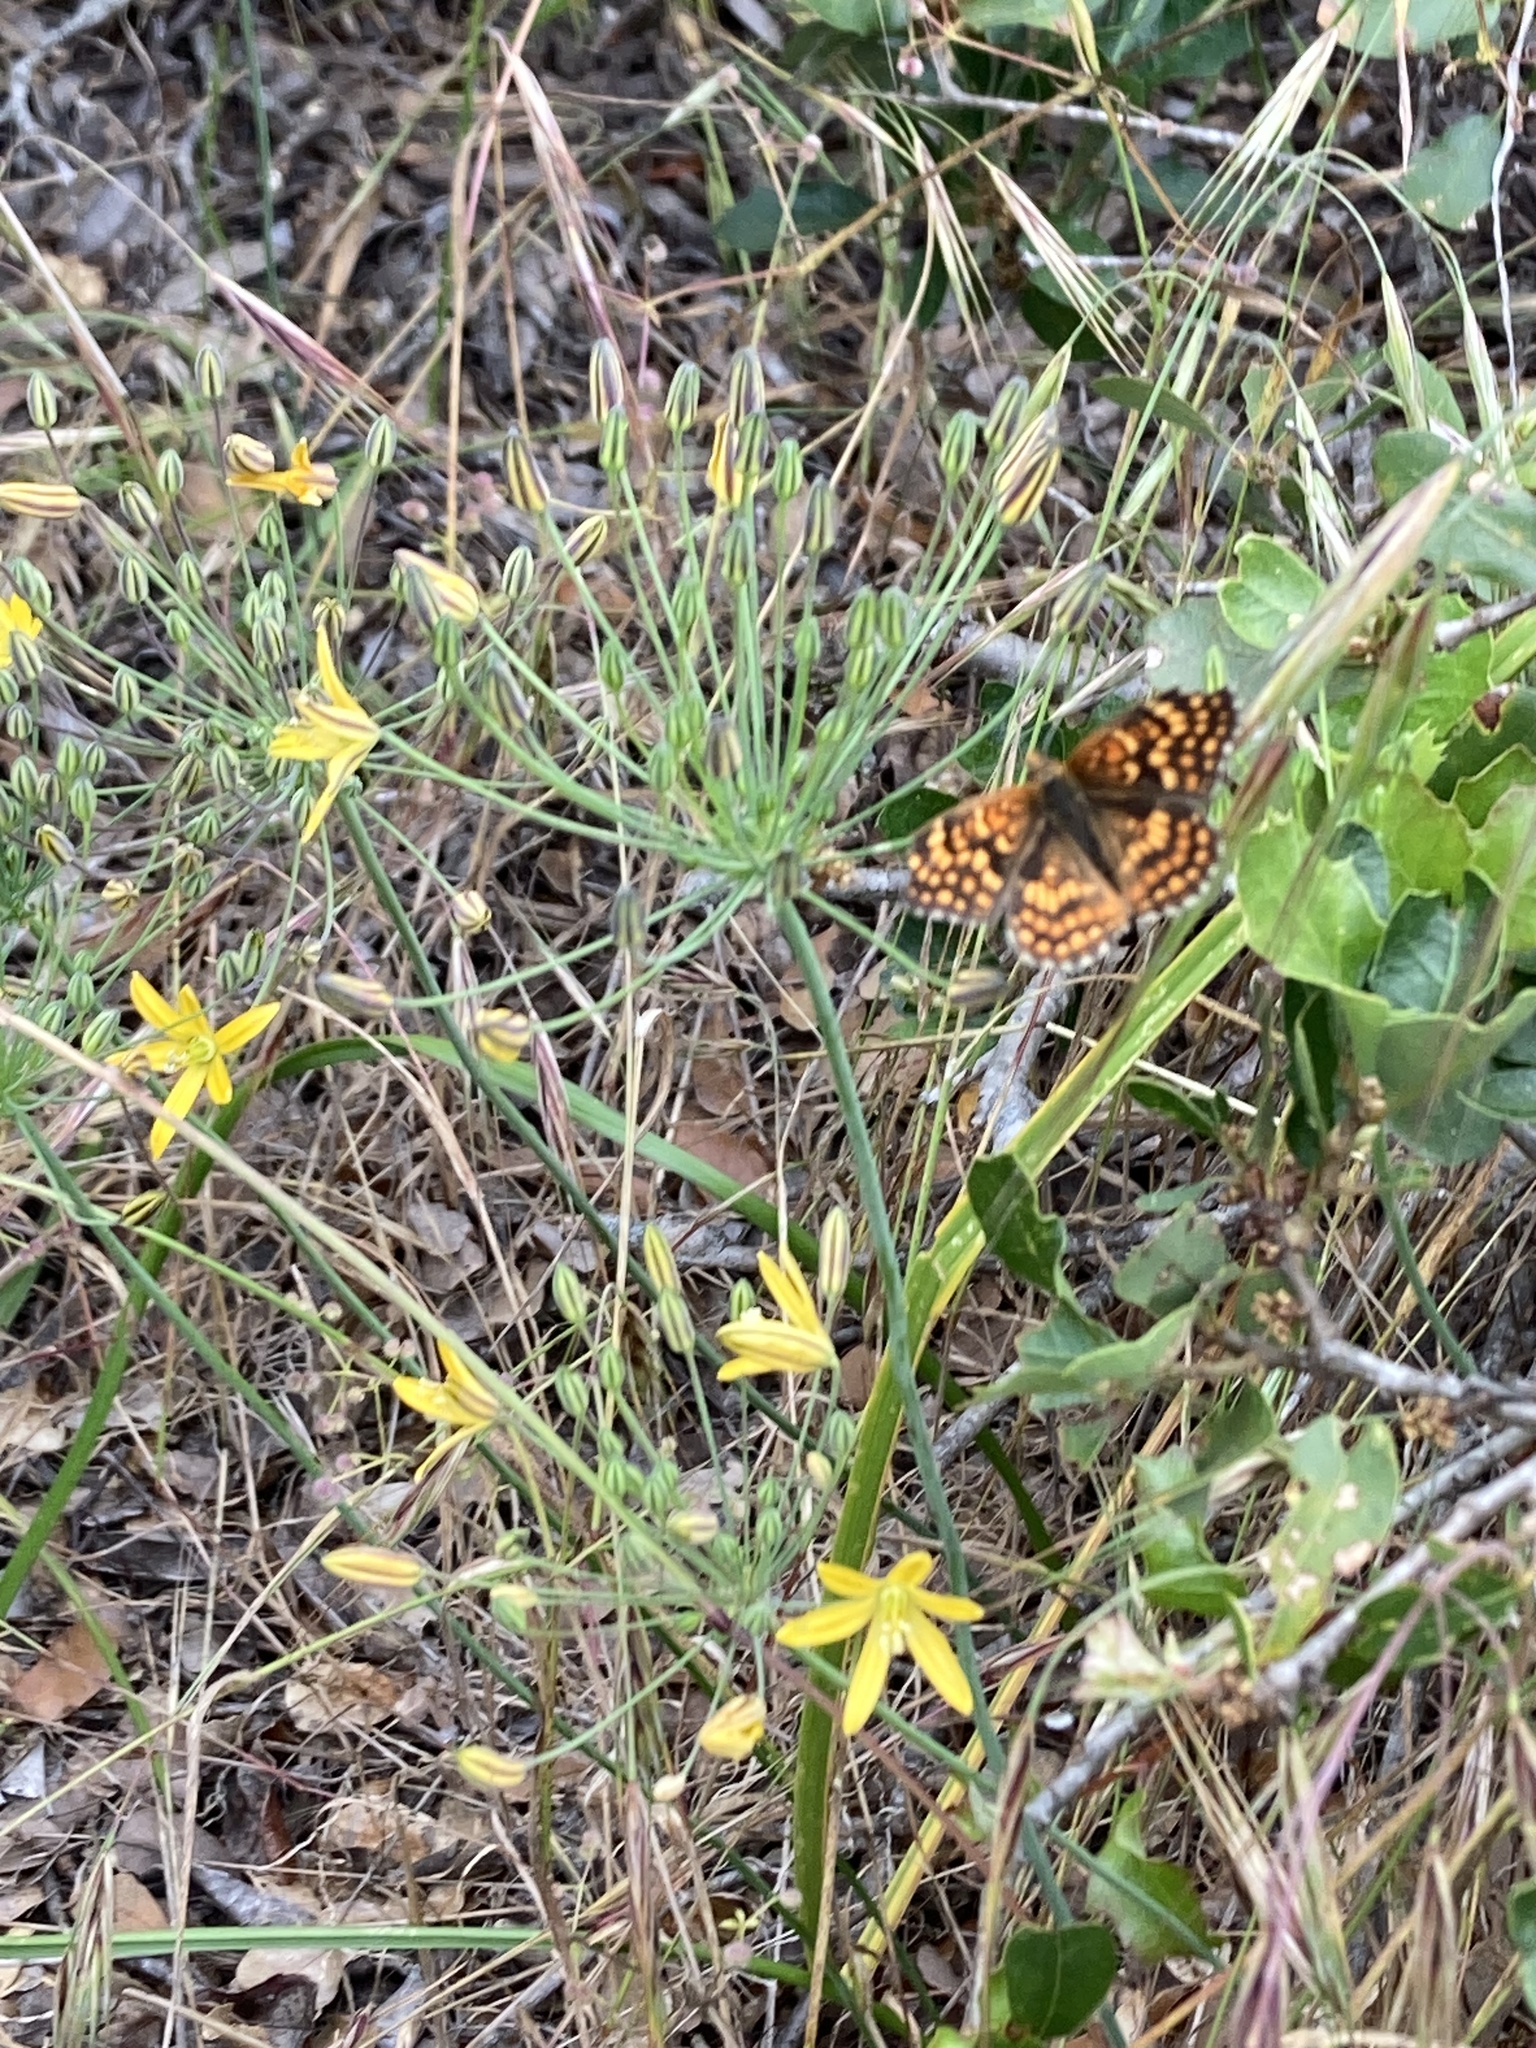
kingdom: Animalia
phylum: Arthropoda
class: Insecta
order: Lepidoptera
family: Nymphalidae
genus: Chlosyne
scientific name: Chlosyne gabbii
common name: Gabb's checkerspot
